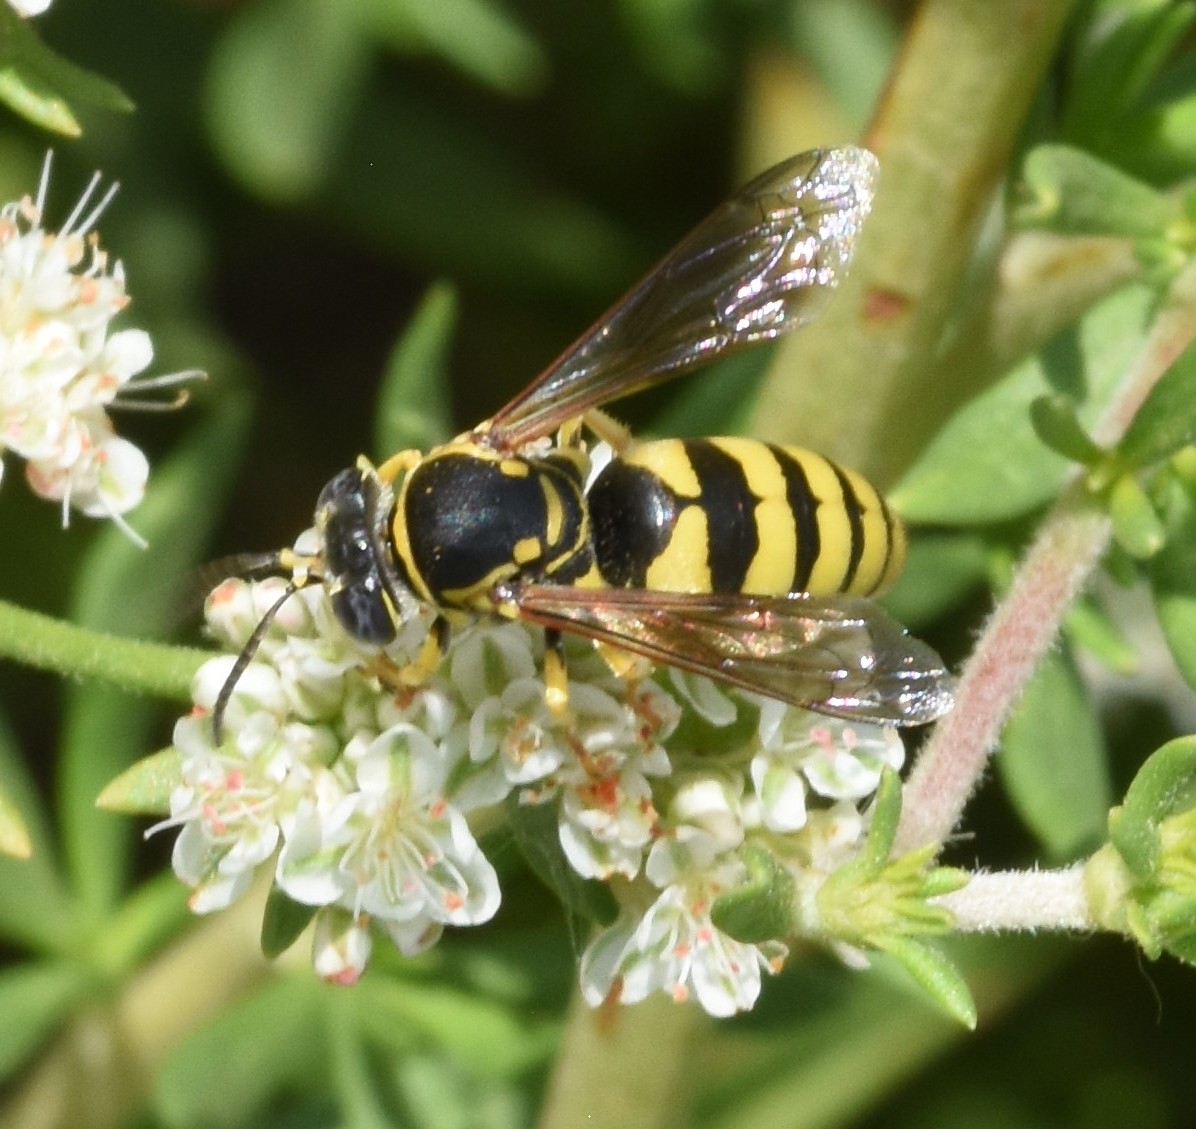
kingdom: Animalia
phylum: Arthropoda
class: Insecta
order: Hymenoptera
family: Crabronidae
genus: Bicyrtes
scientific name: Bicyrtes capnopterus
